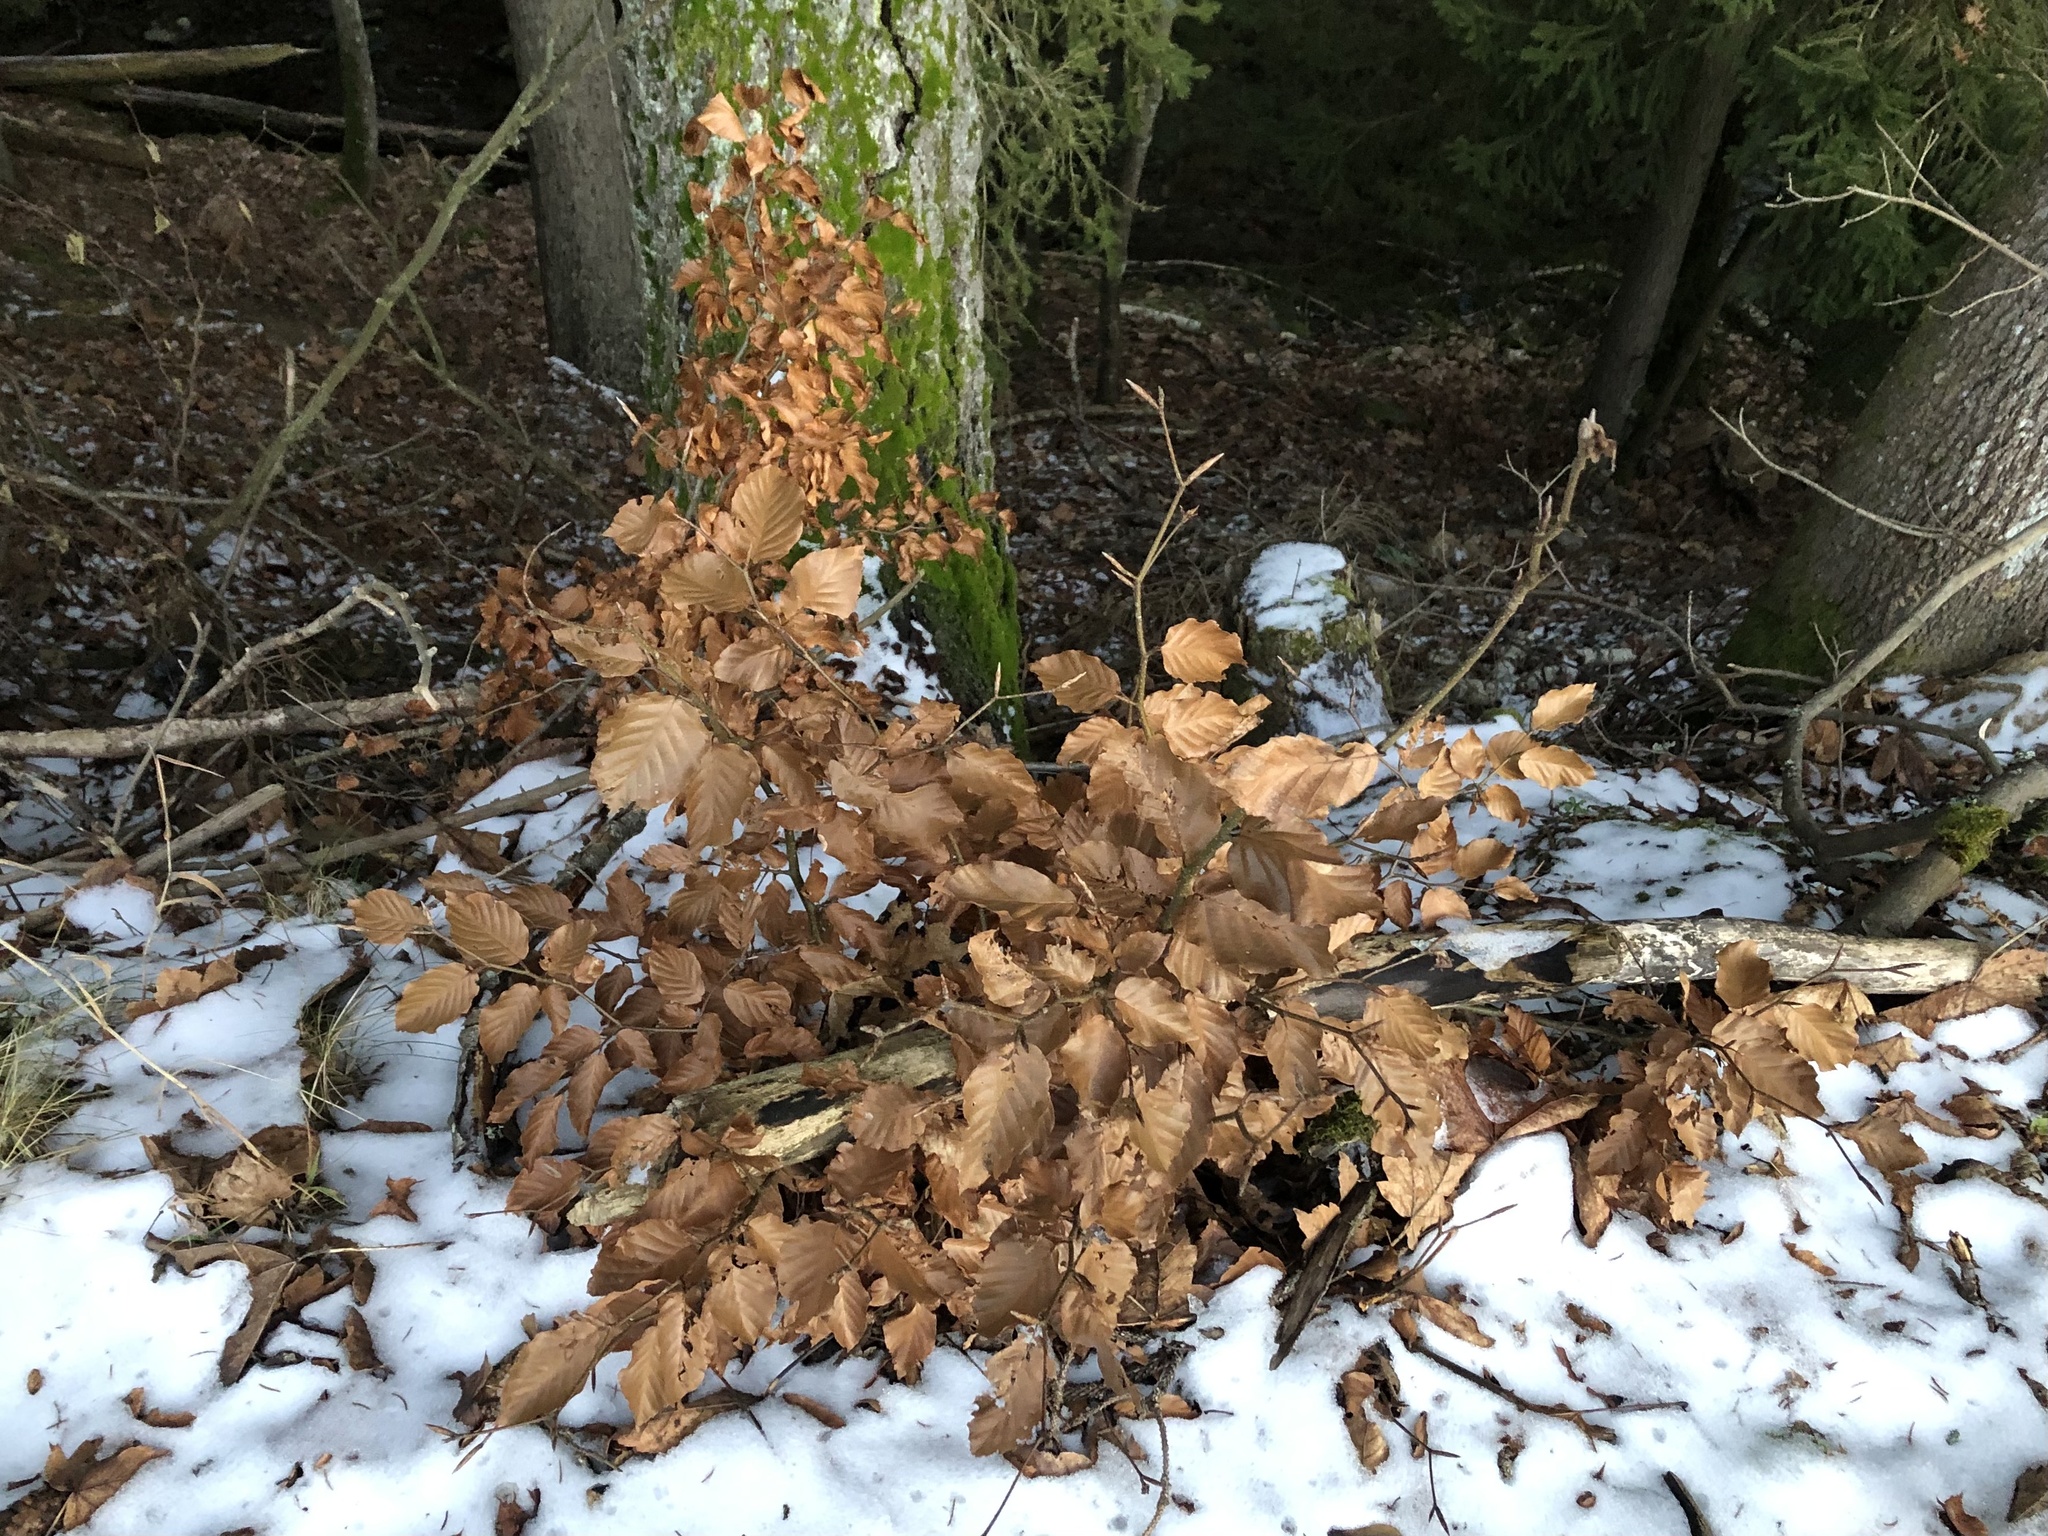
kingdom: Plantae
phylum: Tracheophyta
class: Magnoliopsida
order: Fagales
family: Fagaceae
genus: Fagus
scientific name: Fagus sylvatica
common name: Beech
